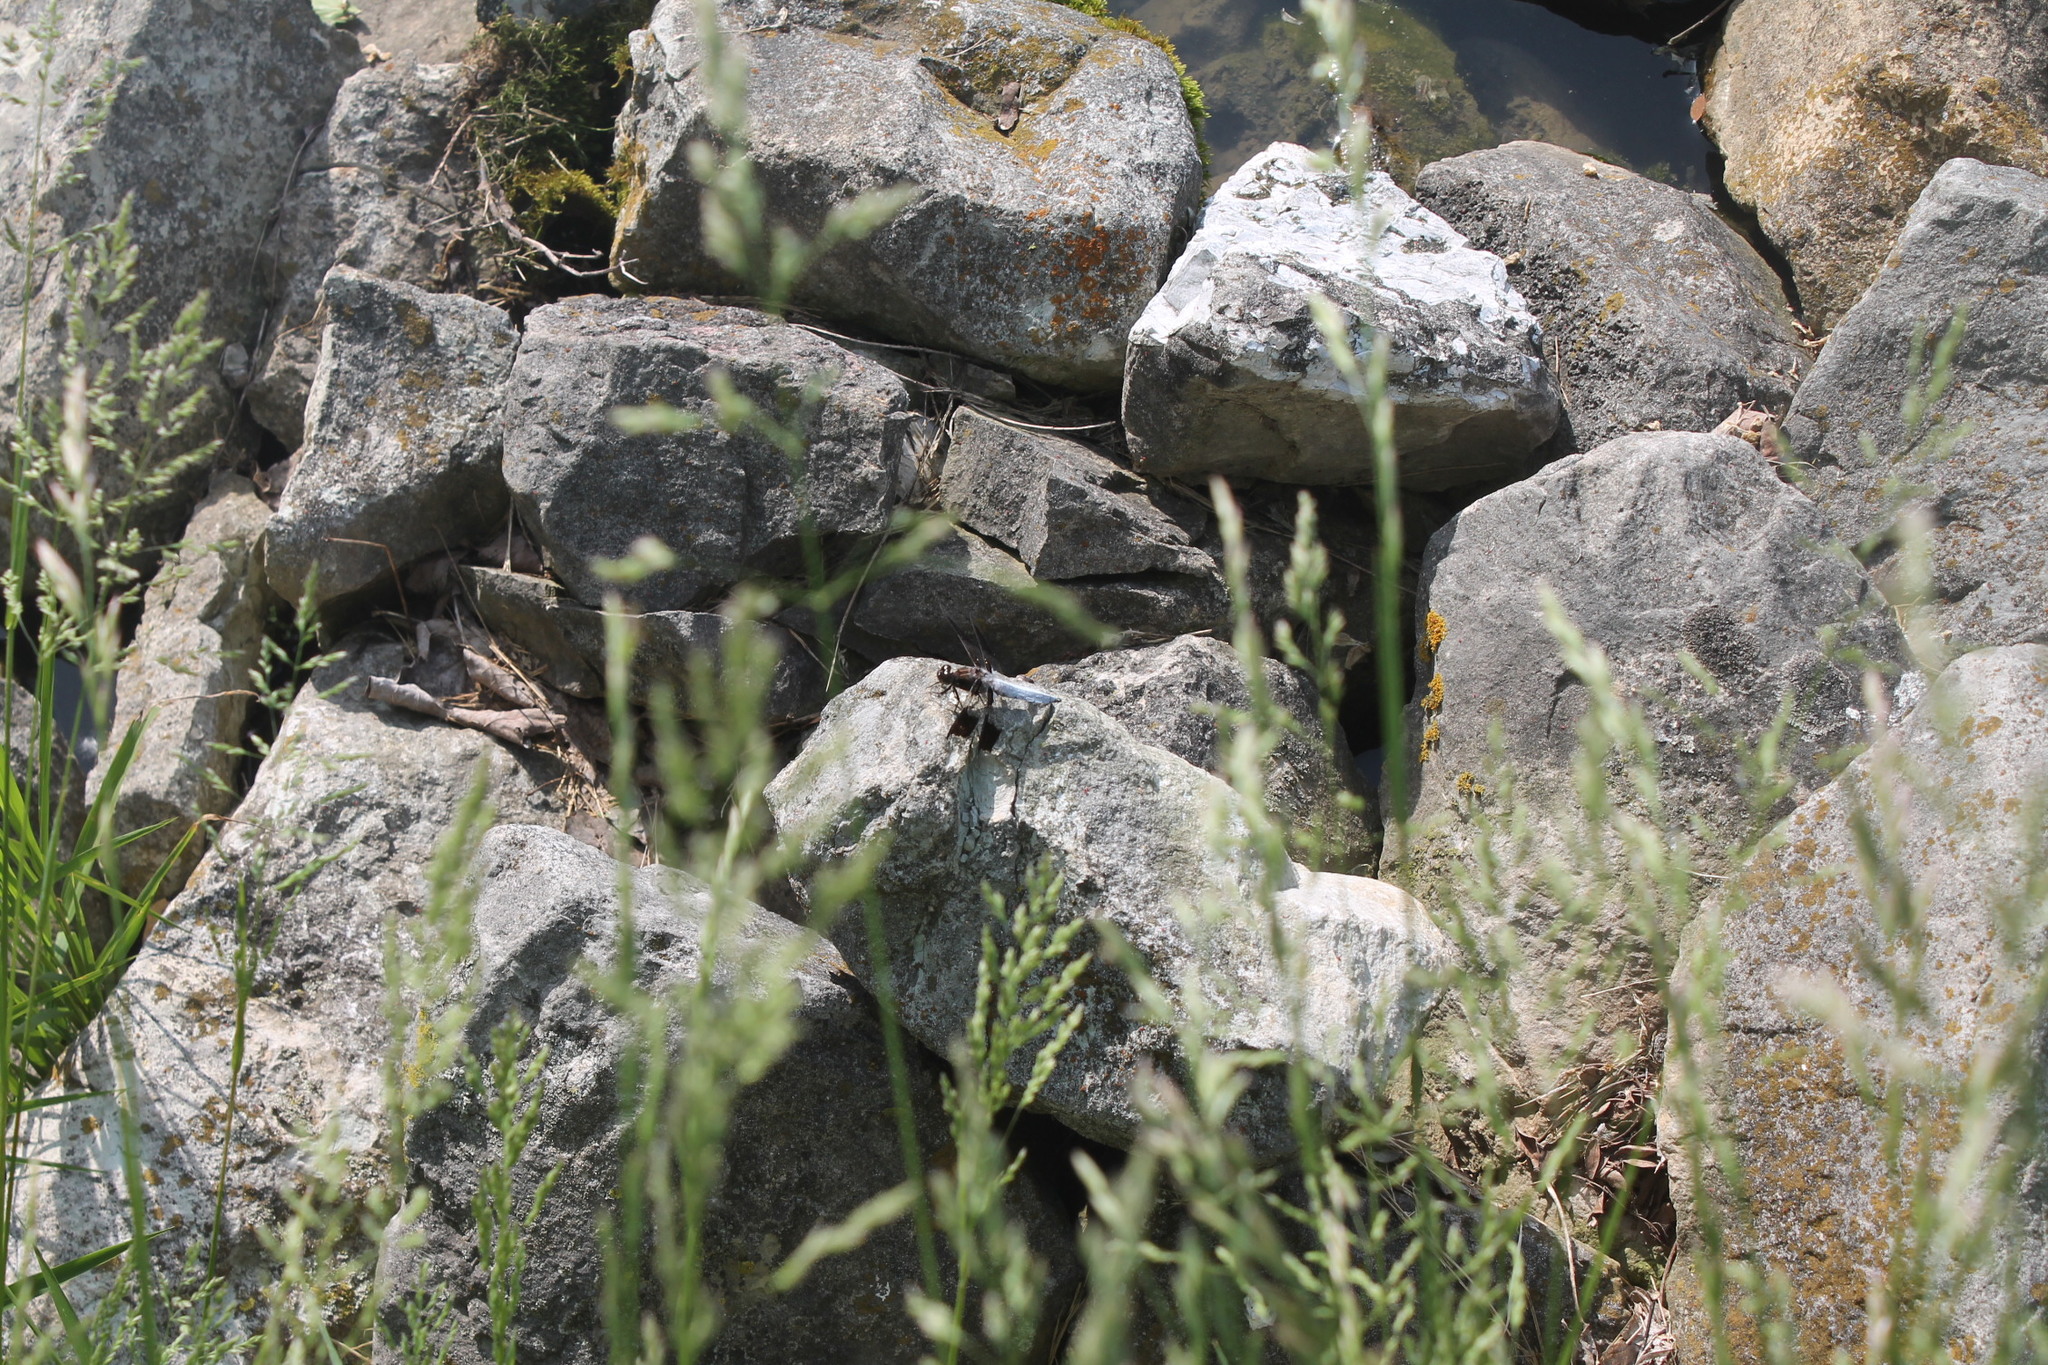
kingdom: Animalia
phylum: Arthropoda
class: Insecta
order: Odonata
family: Libellulidae
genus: Plathemis
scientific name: Plathemis lydia
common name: Common whitetail
